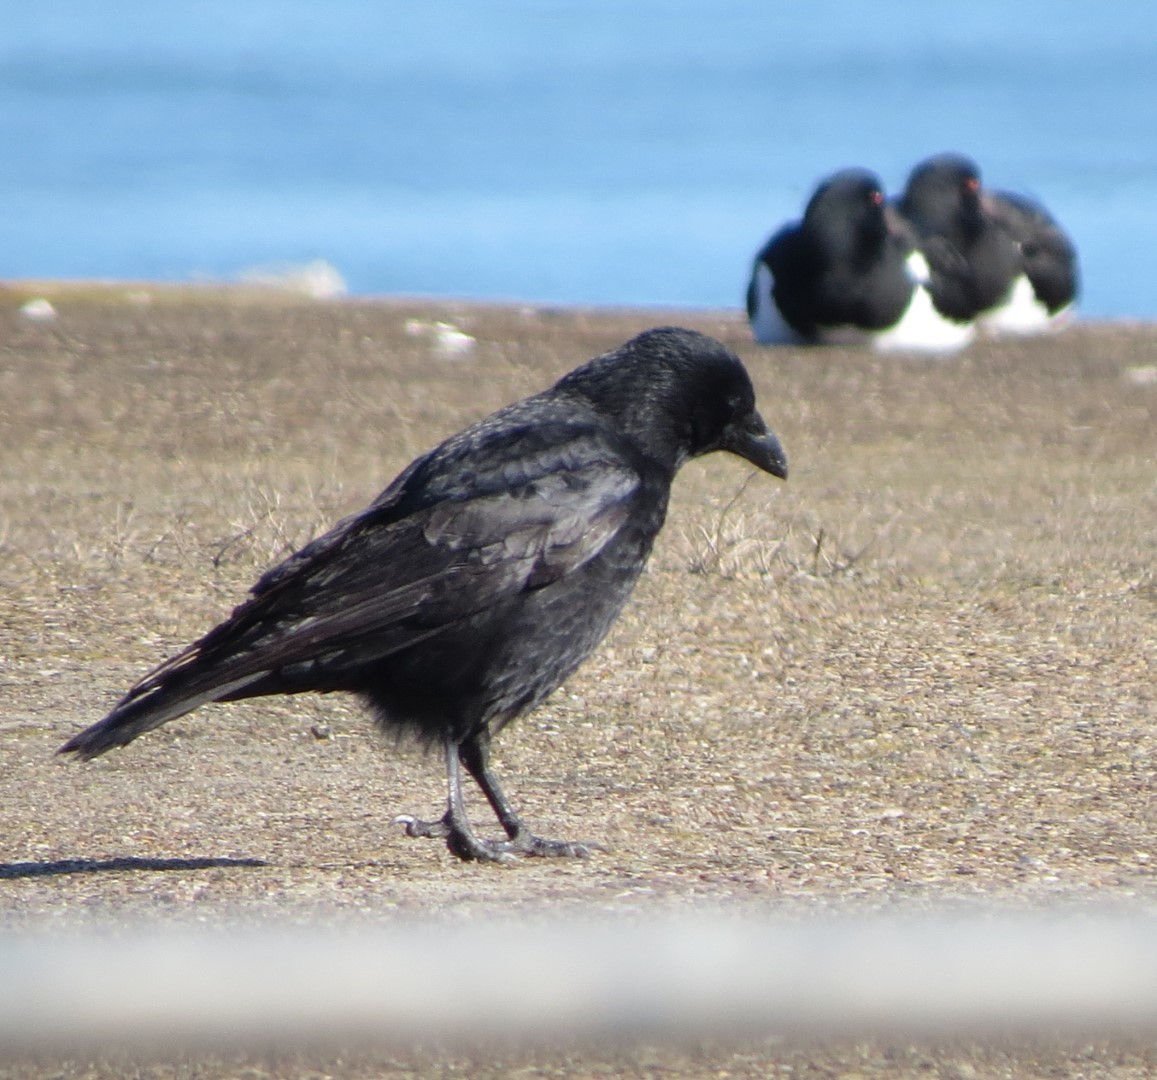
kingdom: Animalia
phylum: Chordata
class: Aves
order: Passeriformes
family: Corvidae
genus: Corvus
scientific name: Corvus corone
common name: Carrion crow
